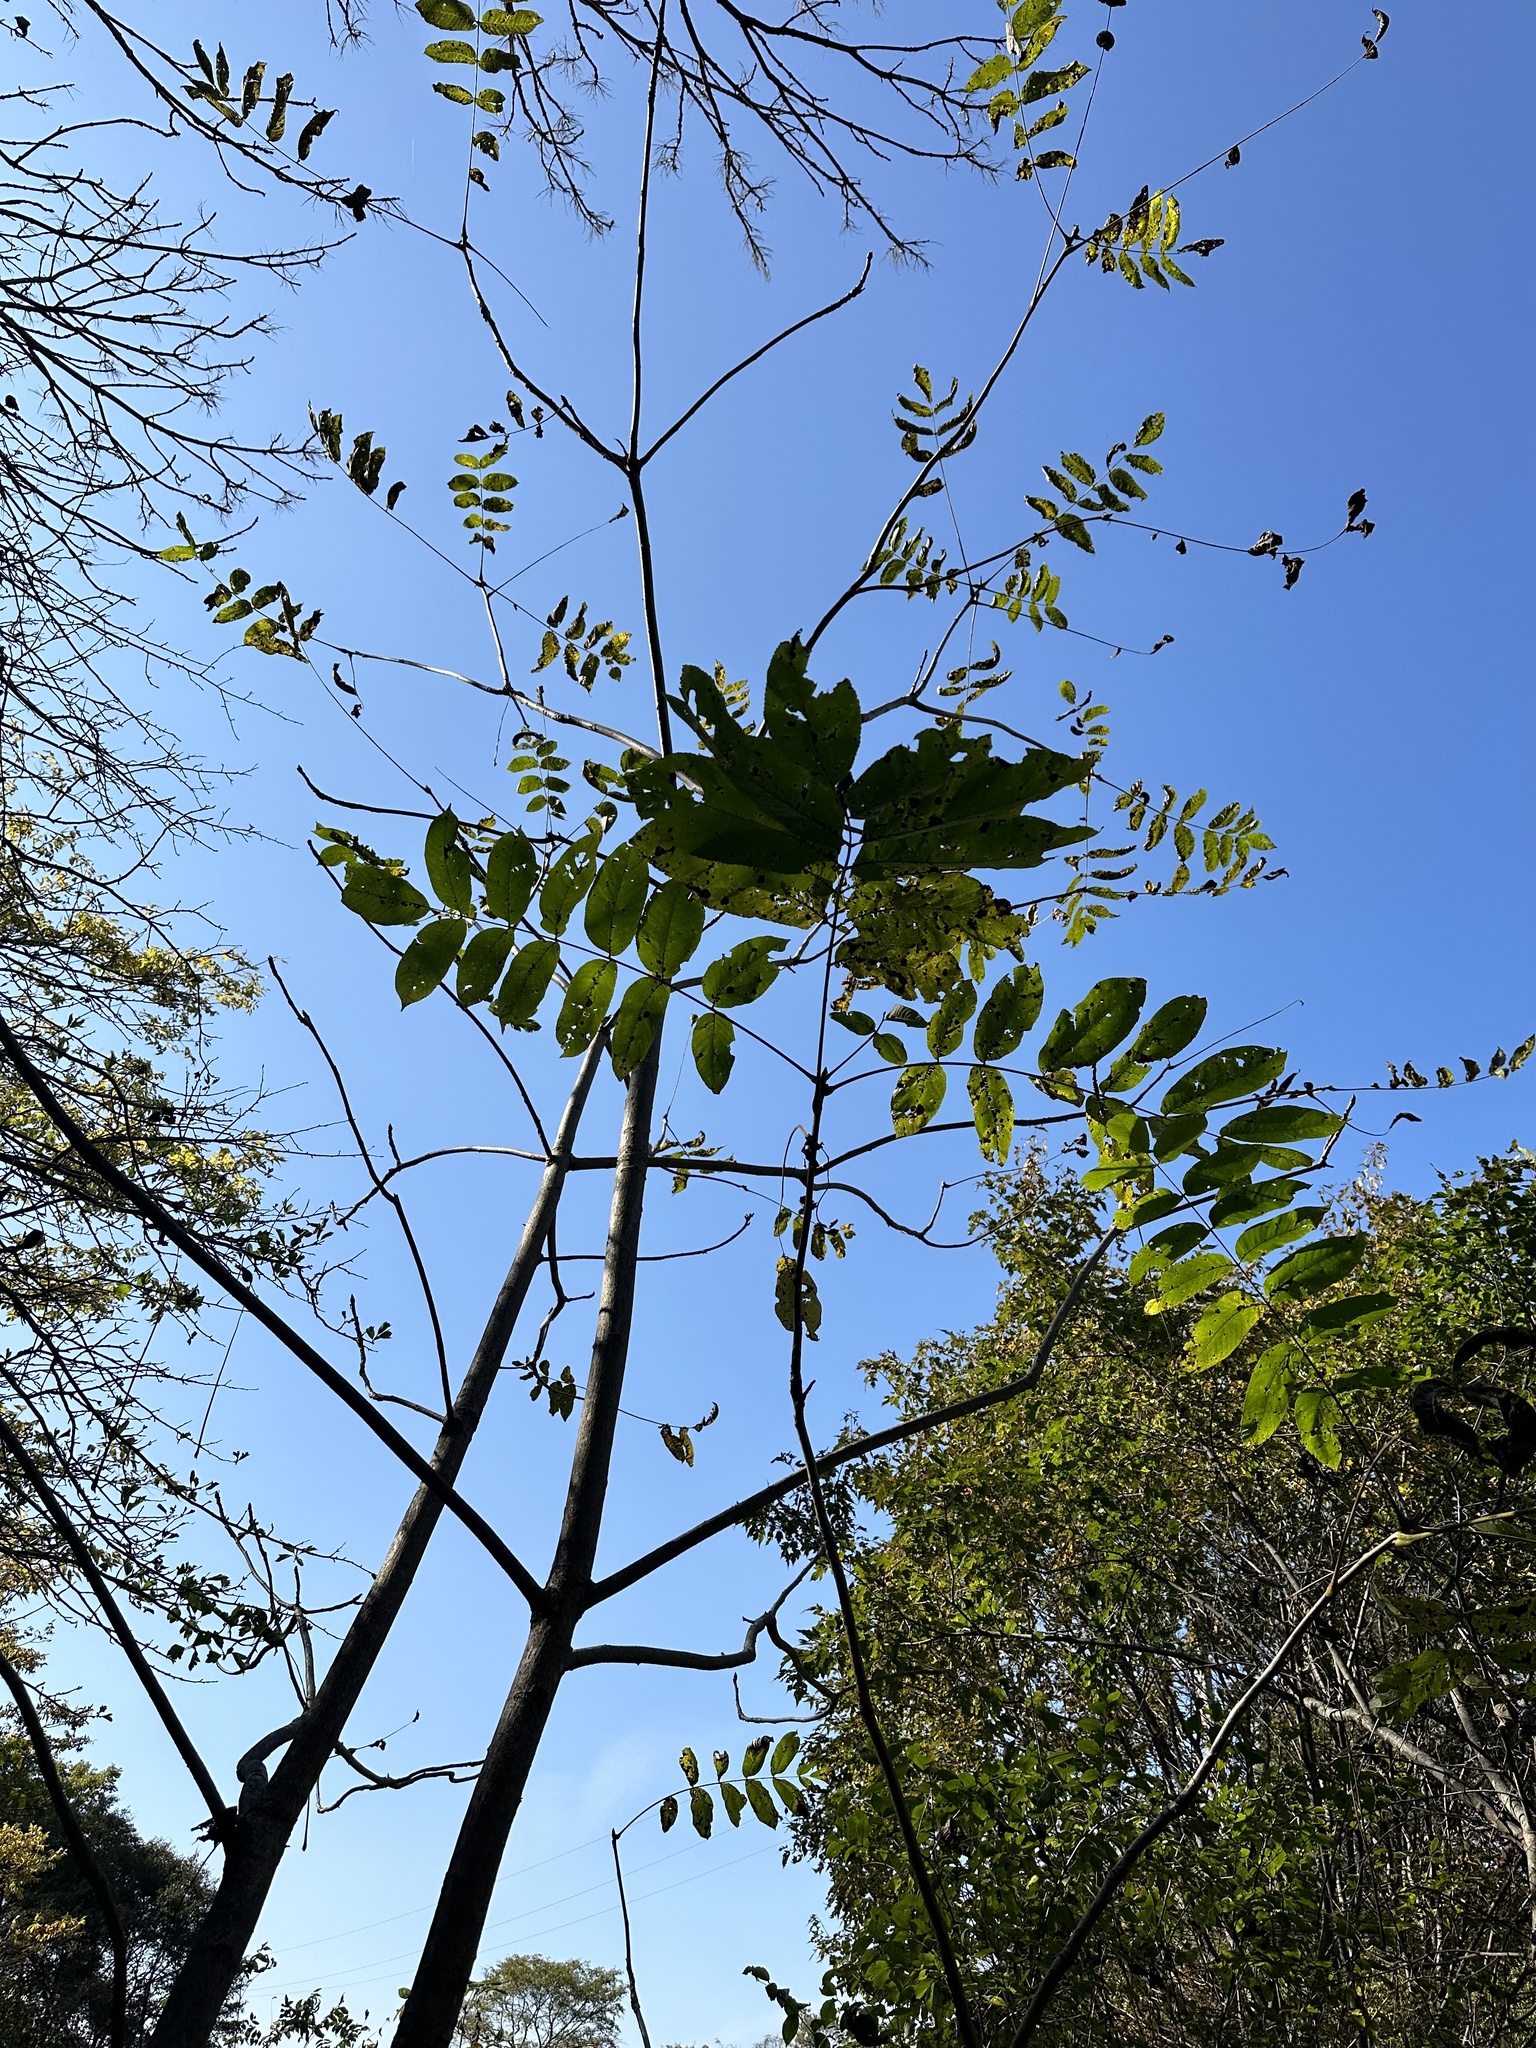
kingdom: Plantae
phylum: Tracheophyta
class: Magnoliopsida
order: Fagales
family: Juglandaceae
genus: Juglans
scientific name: Juglans mandshurica
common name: Manchurian walnut
